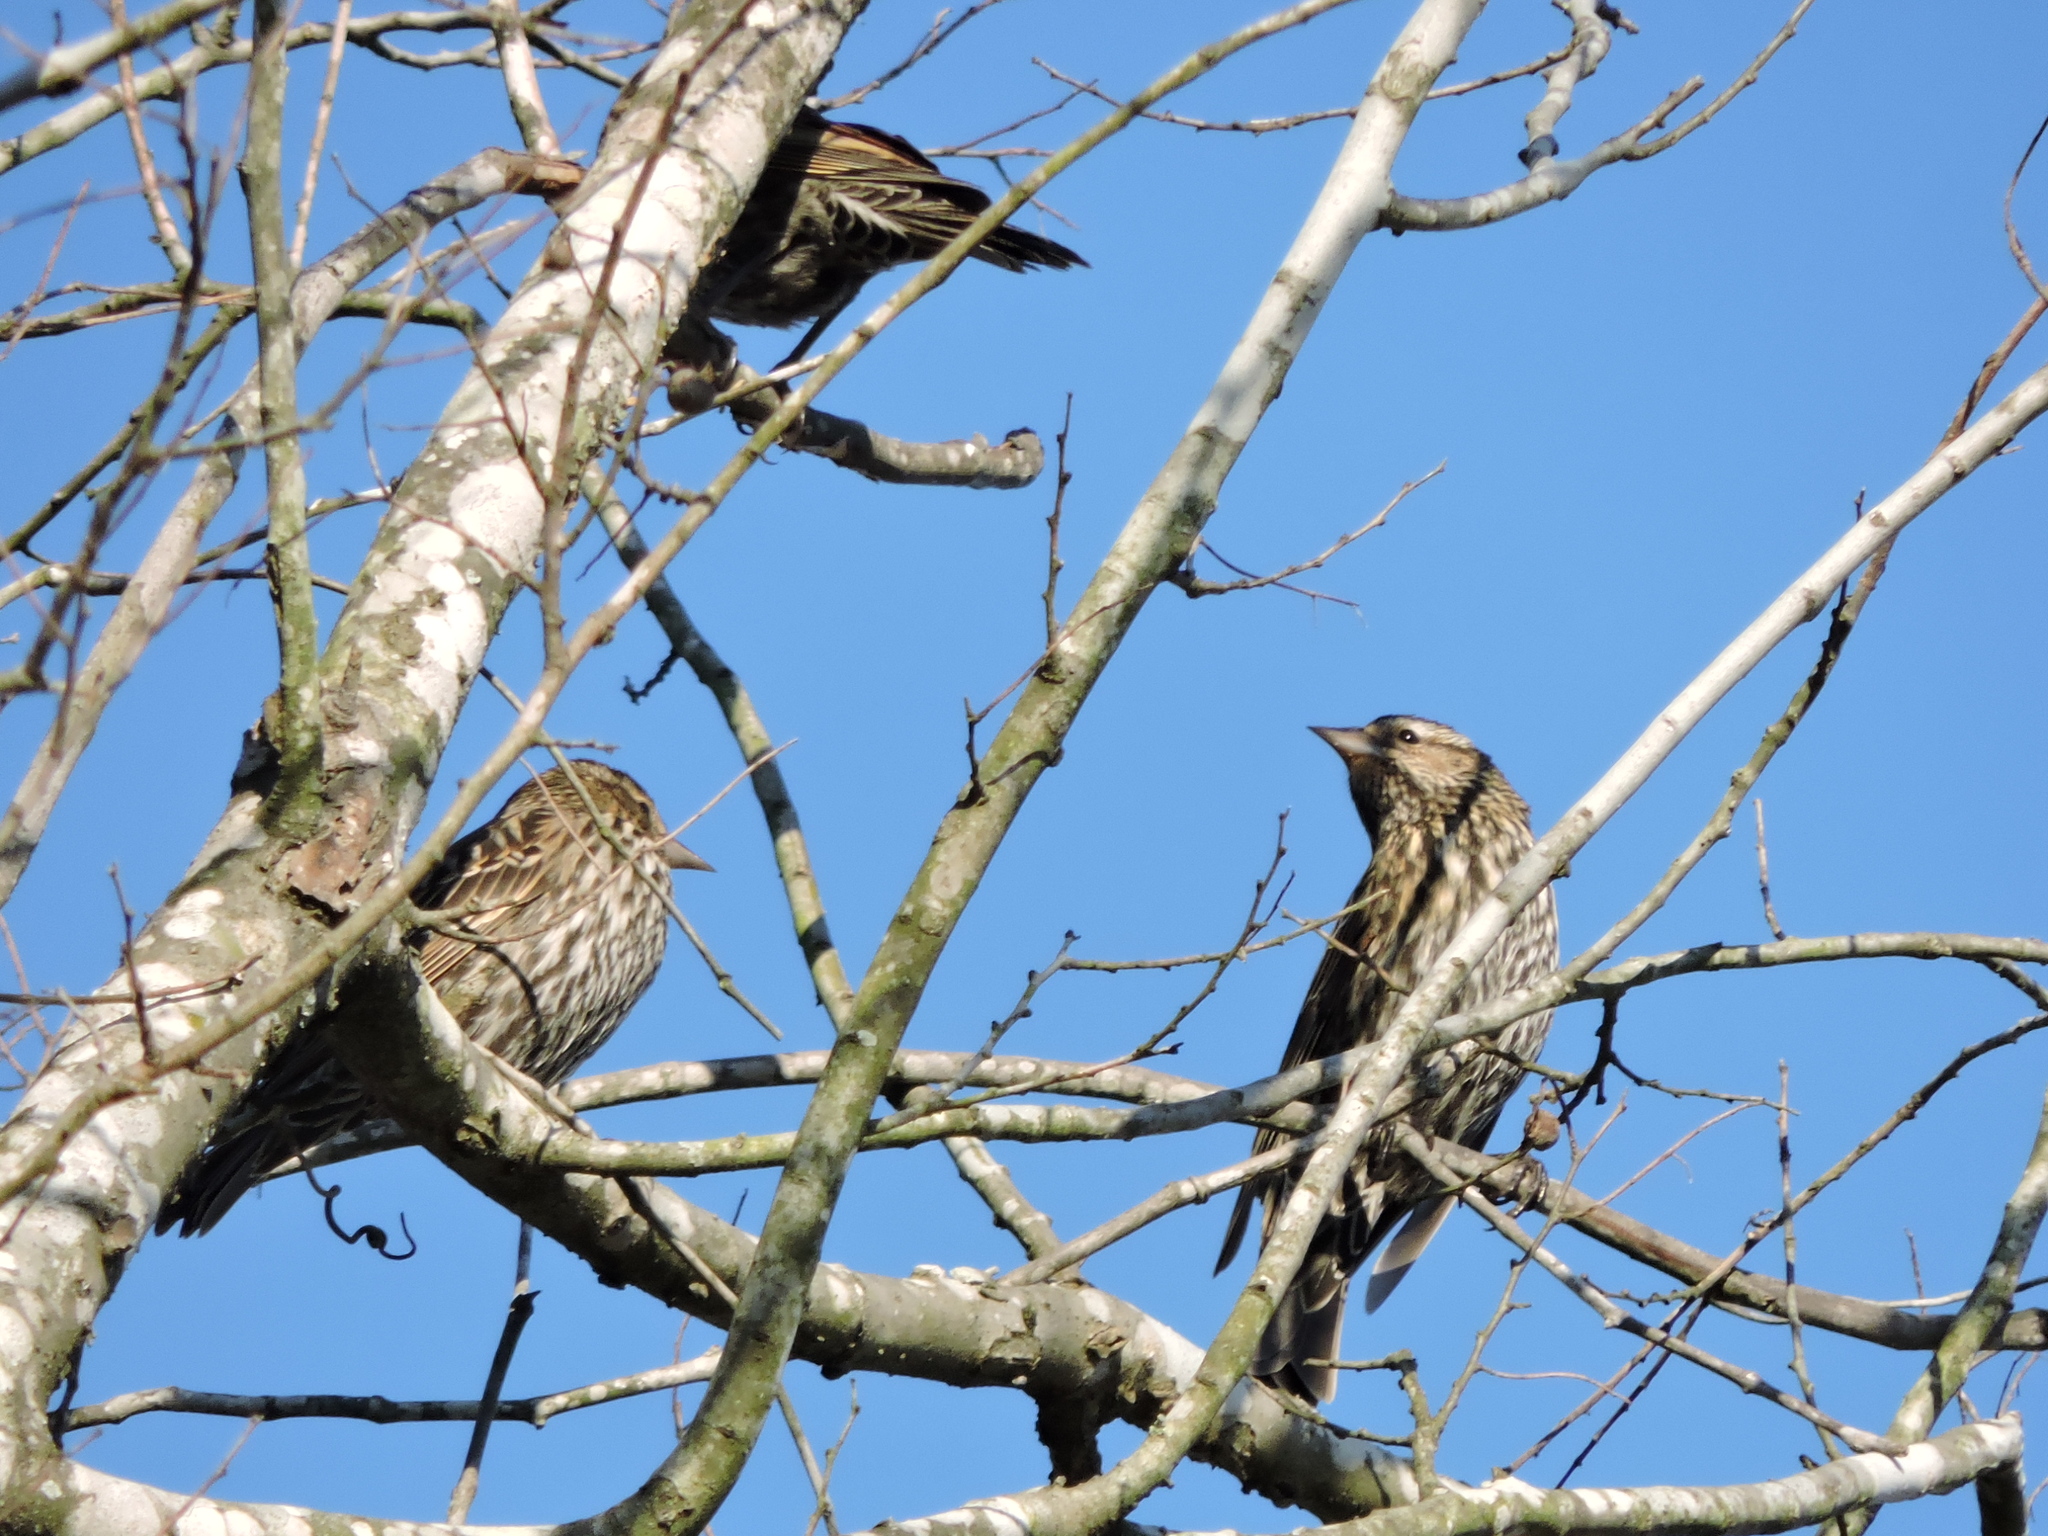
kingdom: Animalia
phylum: Chordata
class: Aves
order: Passeriformes
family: Icteridae
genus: Agelaius
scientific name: Agelaius phoeniceus
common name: Red-winged blackbird
